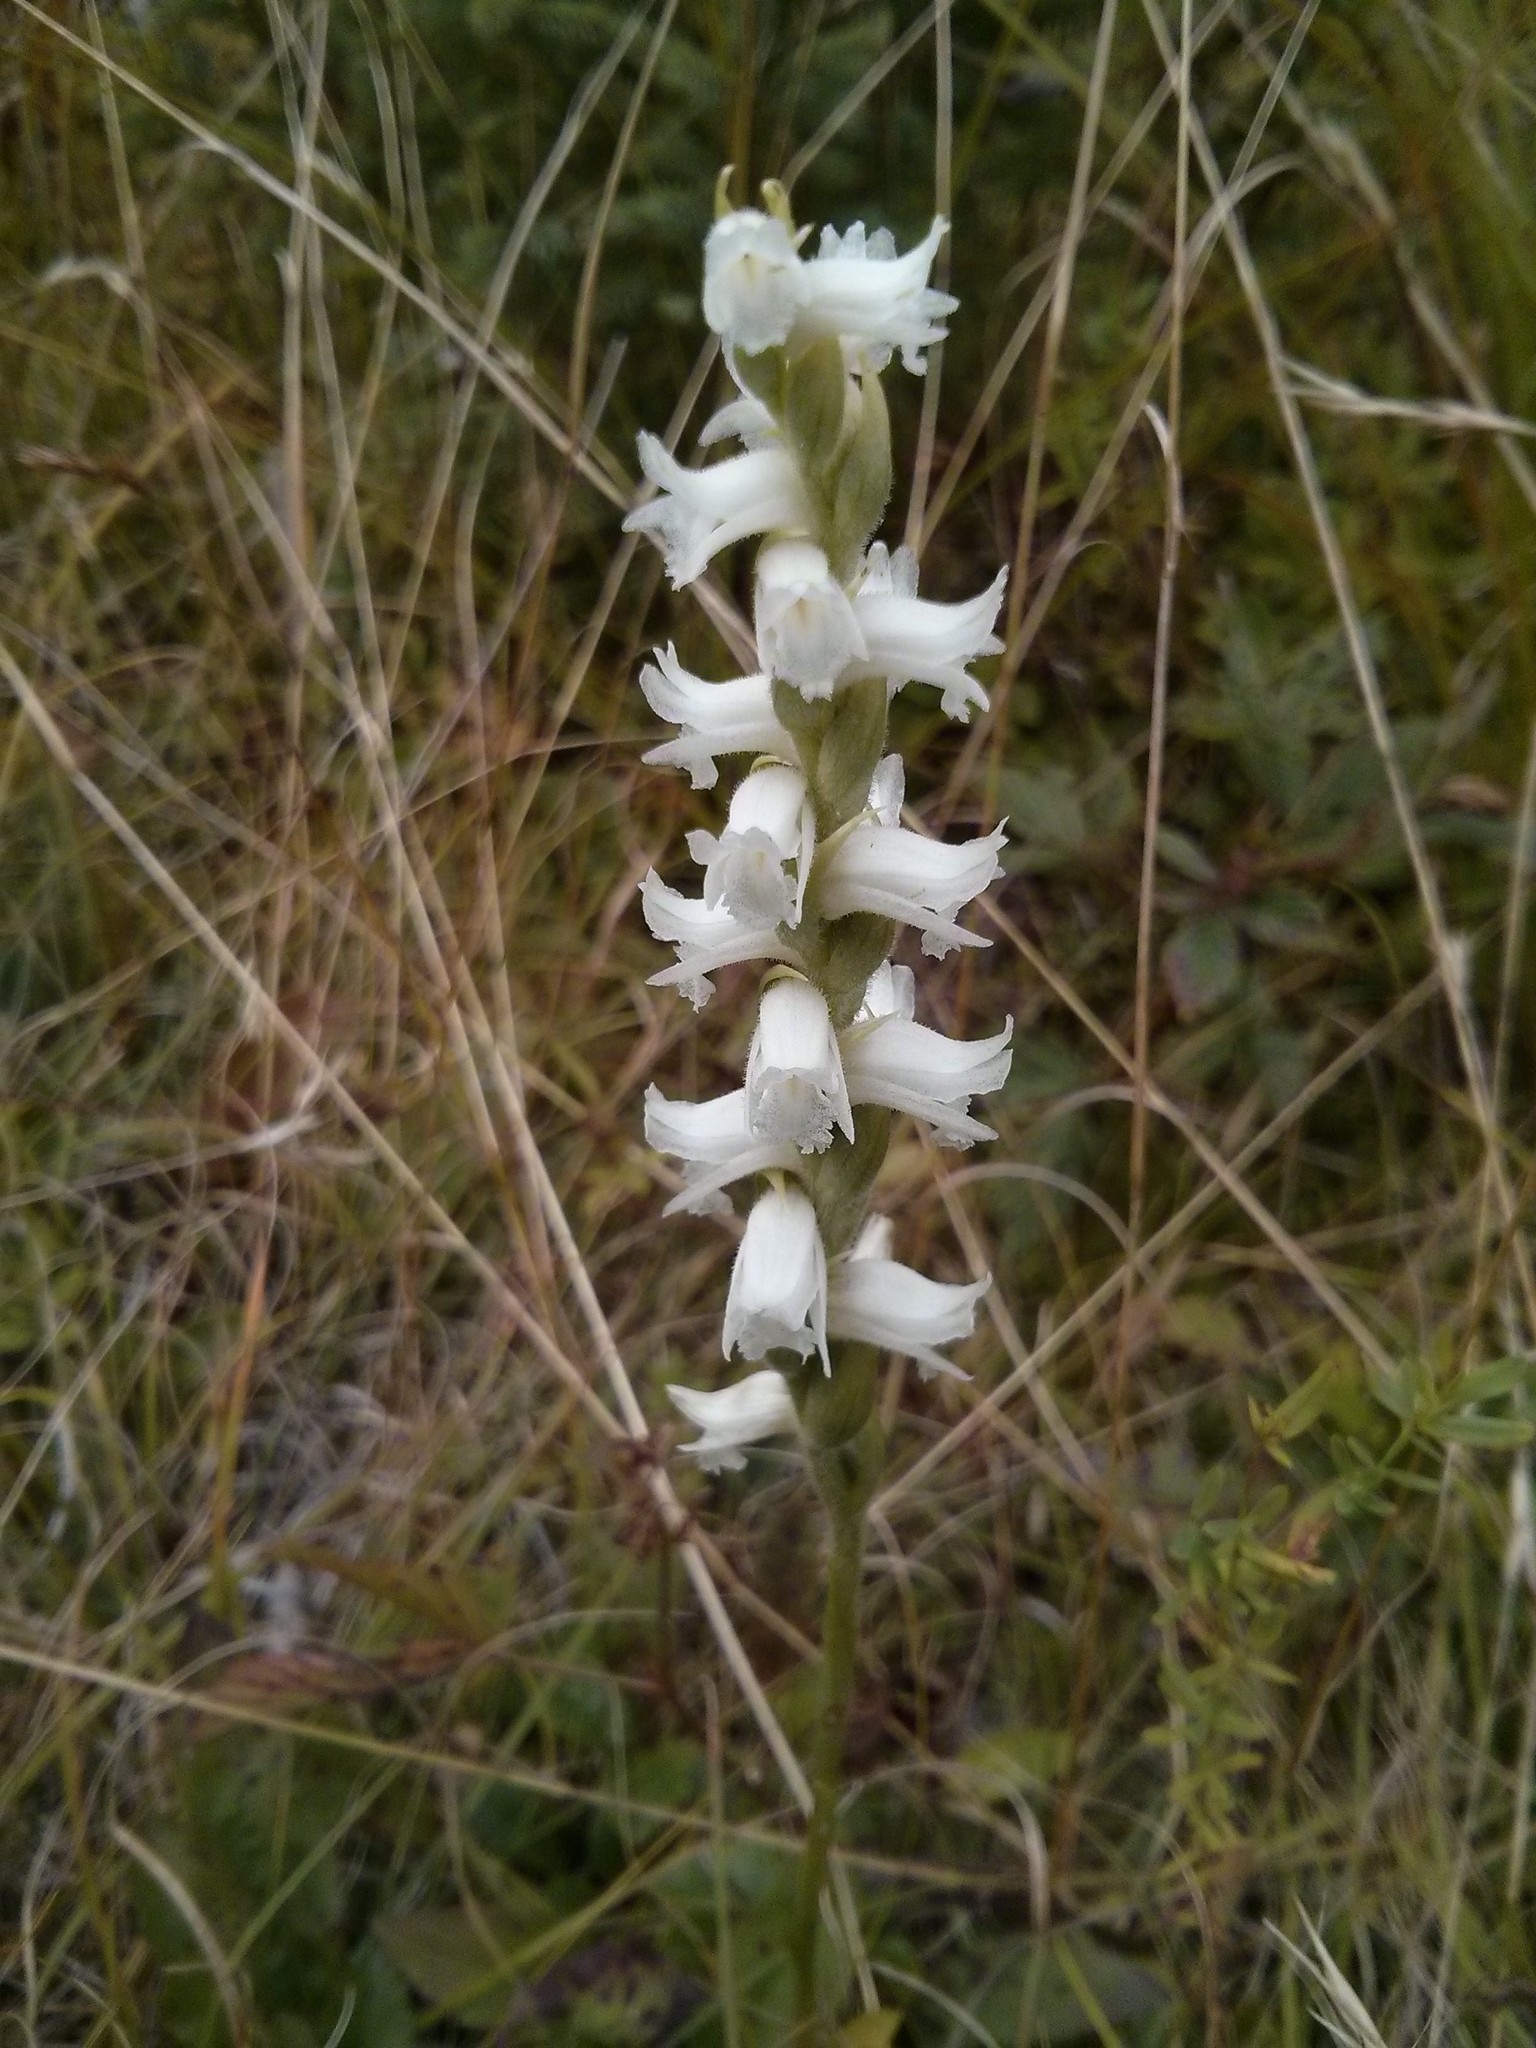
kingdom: Plantae
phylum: Tracheophyta
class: Liliopsida
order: Asparagales
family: Orchidaceae
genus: Spiranthes
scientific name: Spiranthes arcisepala
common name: Appalachian ladies'-tresses
